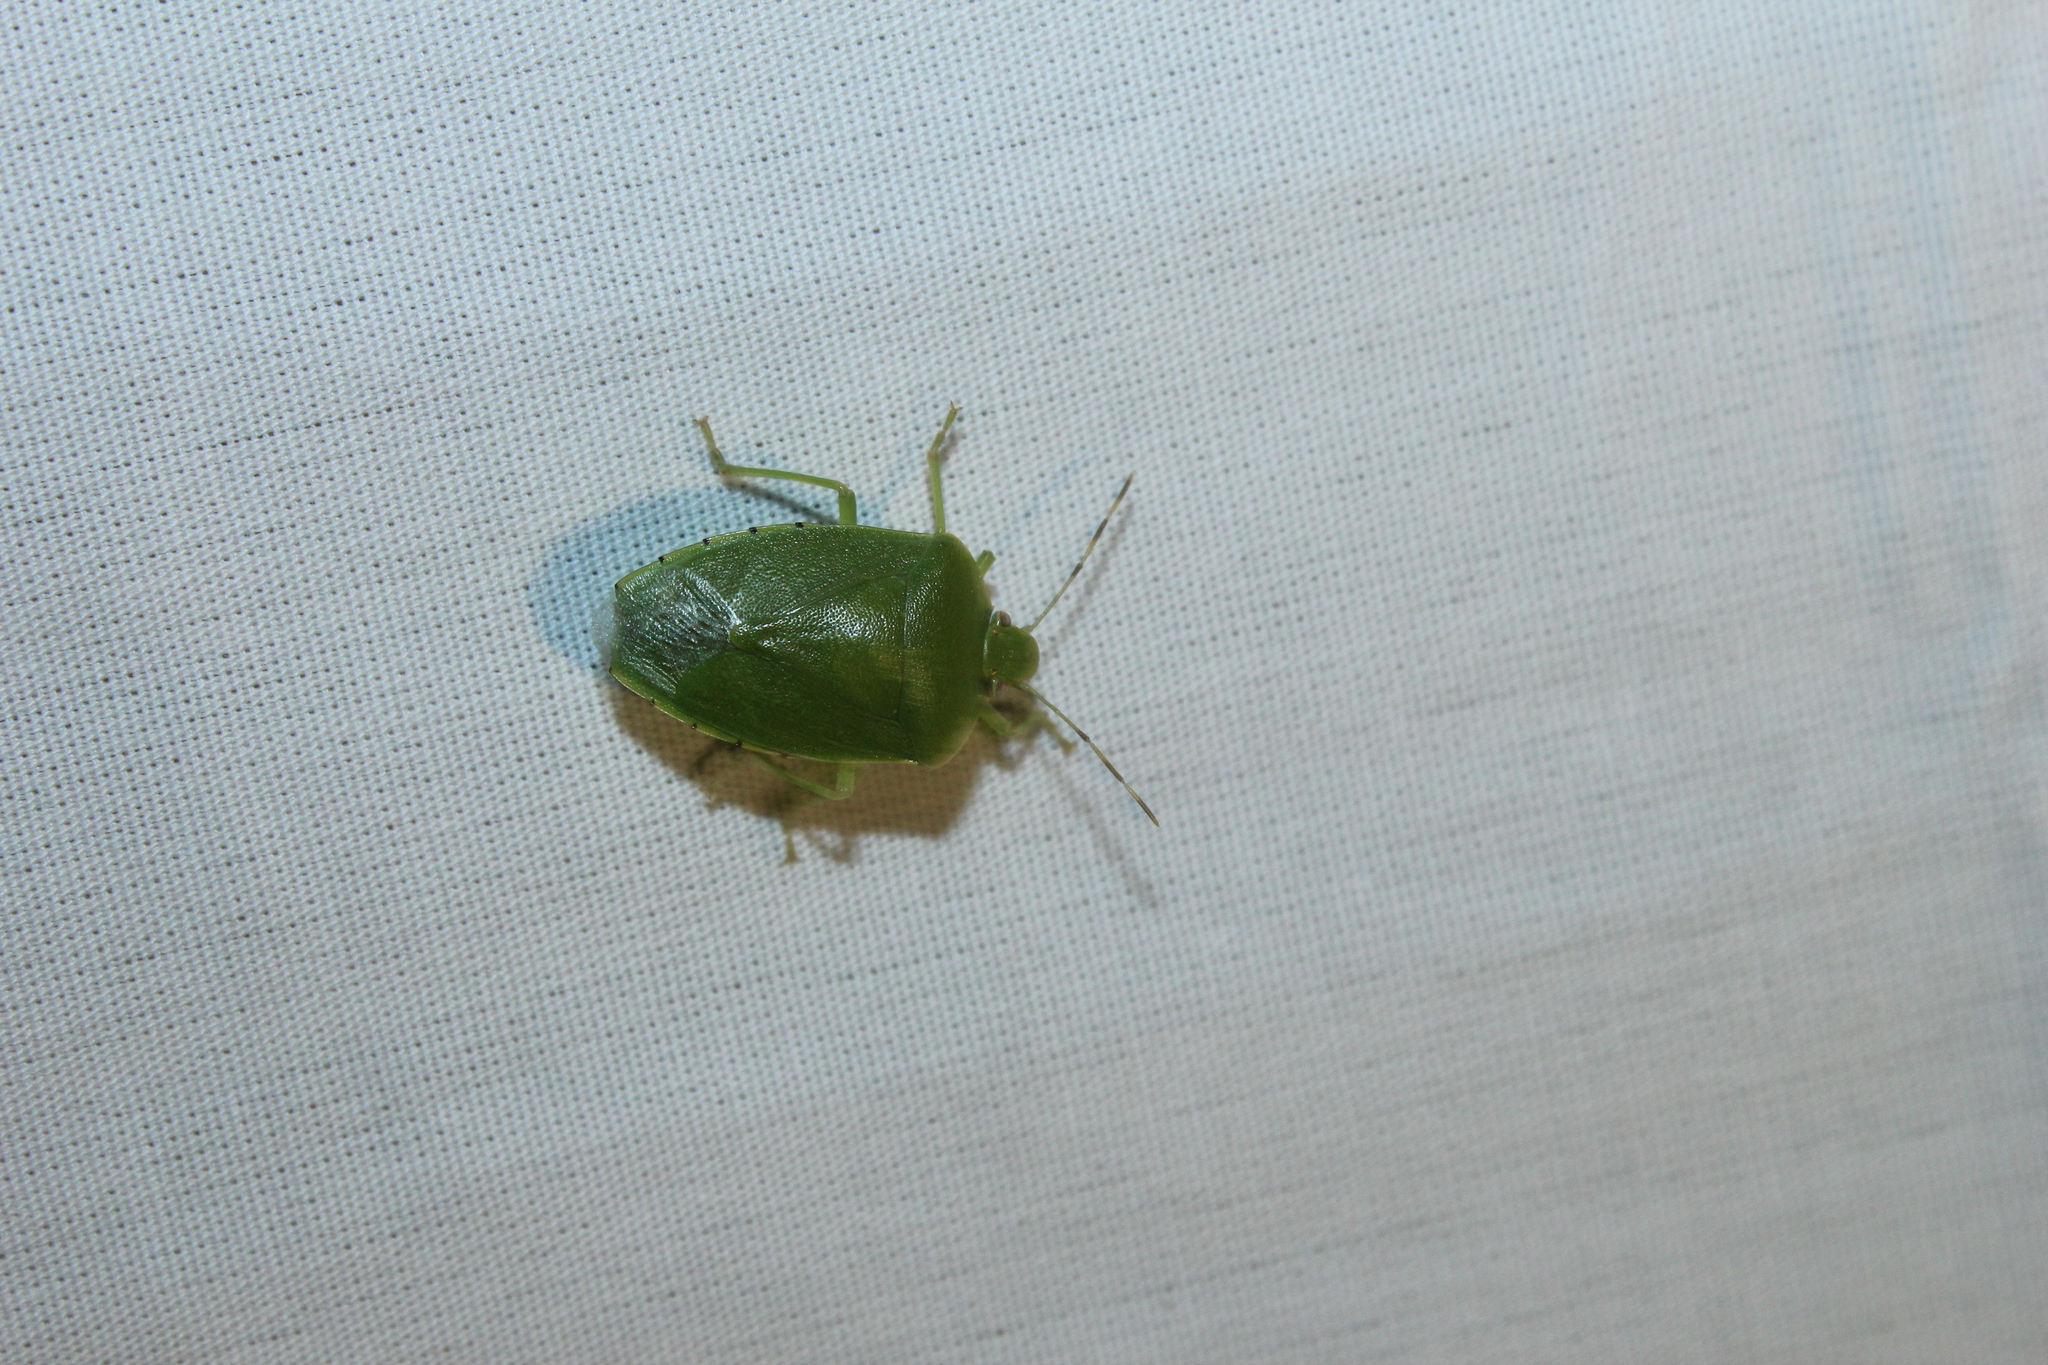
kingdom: Animalia
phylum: Arthropoda
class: Insecta
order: Hemiptera
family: Pentatomidae
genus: Chinavia
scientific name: Chinavia hilaris
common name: Green stink bug
